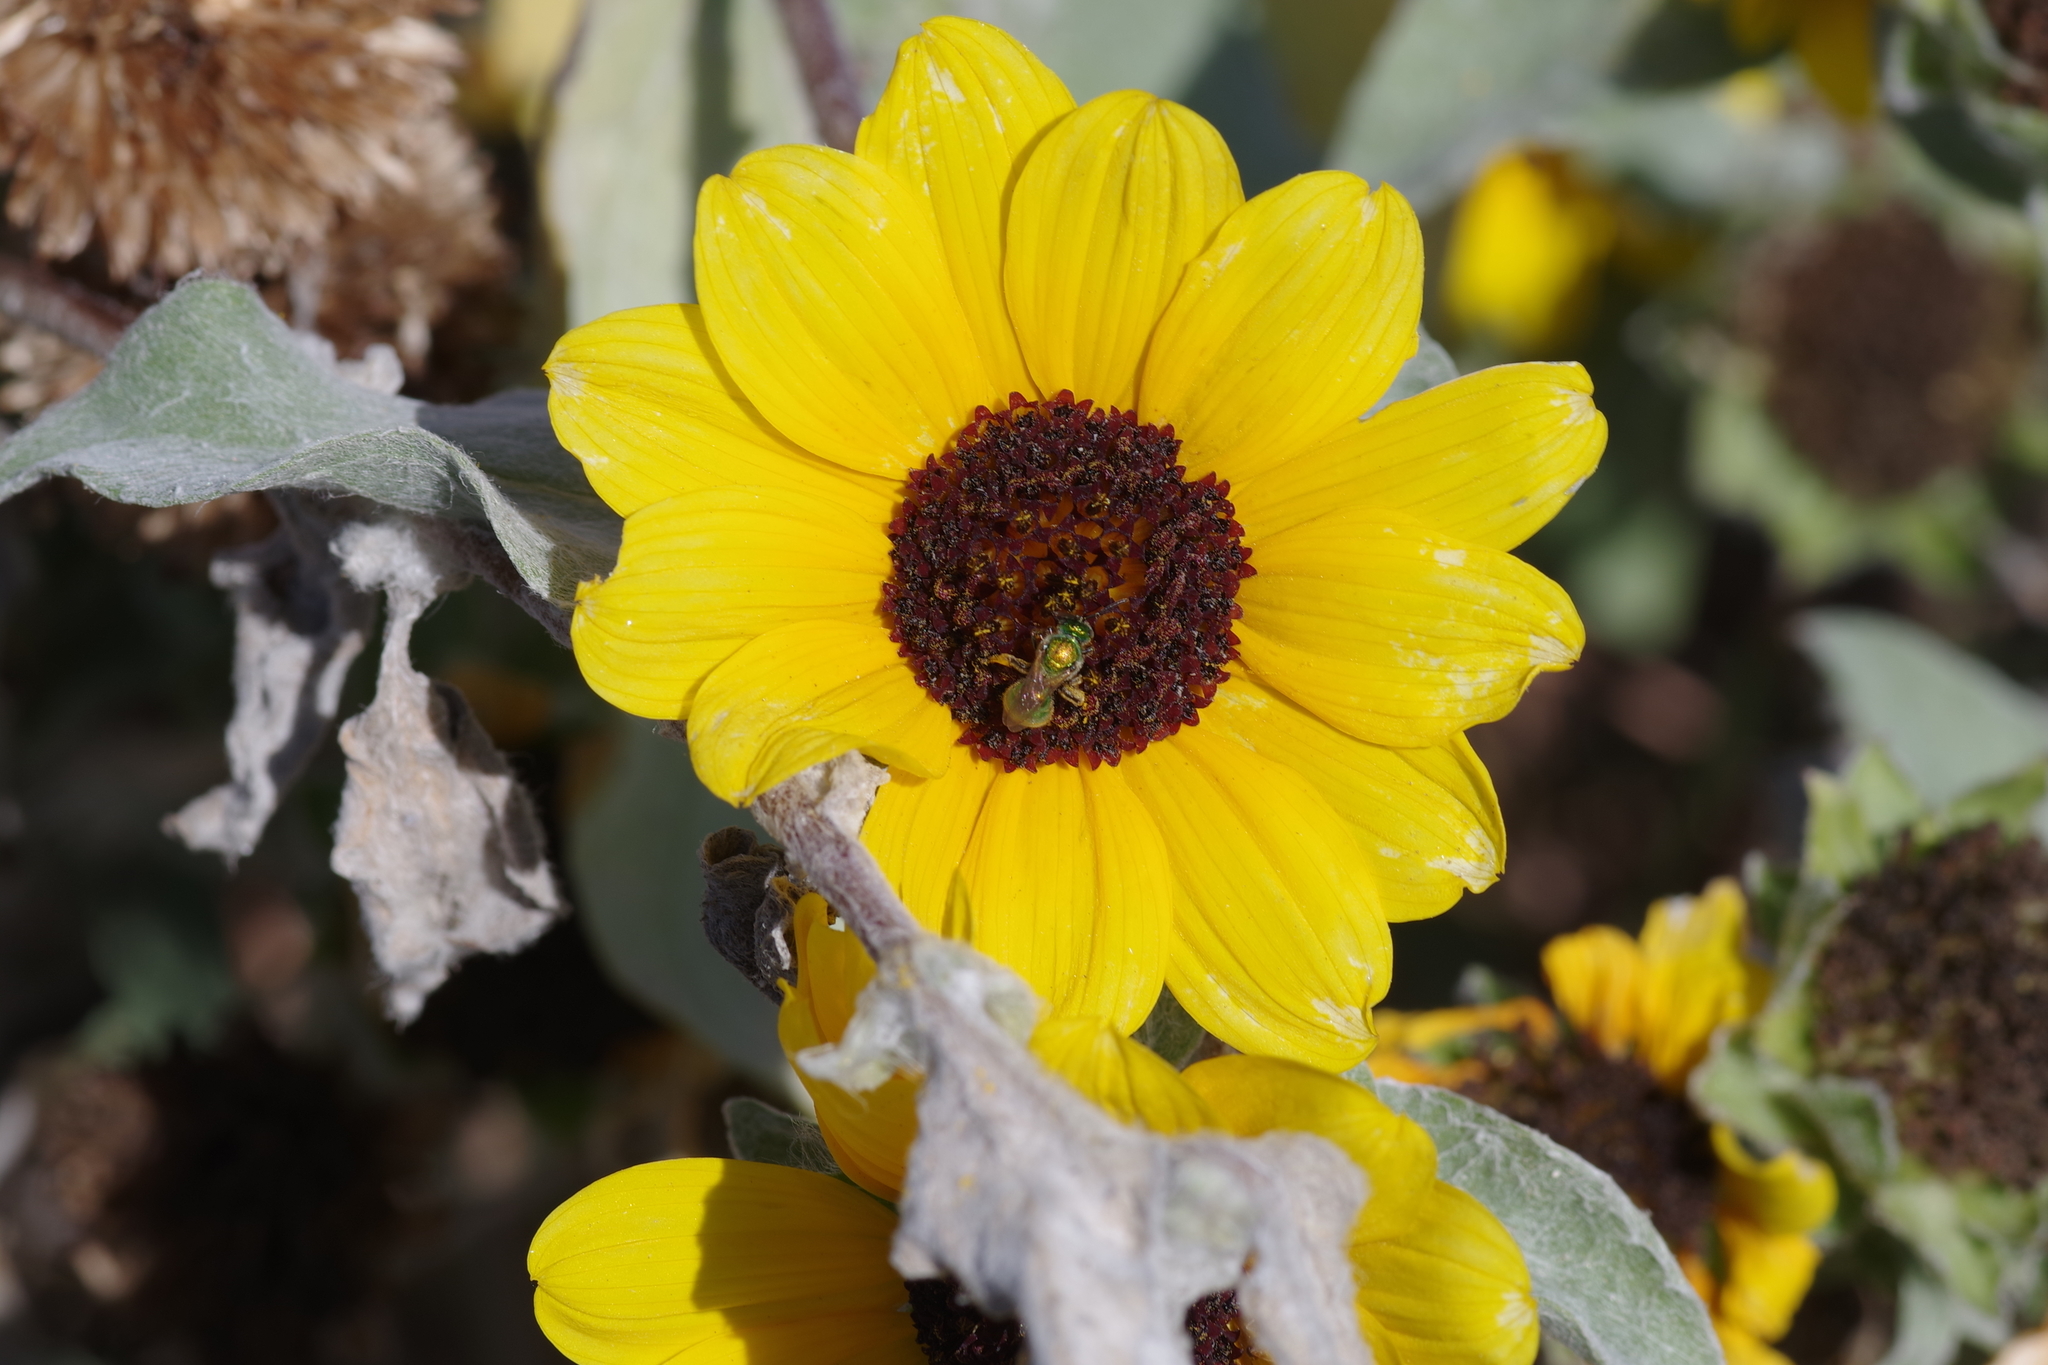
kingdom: Plantae
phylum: Tracheophyta
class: Magnoliopsida
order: Asterales
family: Asteraceae
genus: Helianthus
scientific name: Helianthus argophyllus
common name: Silverleaf sunflower
